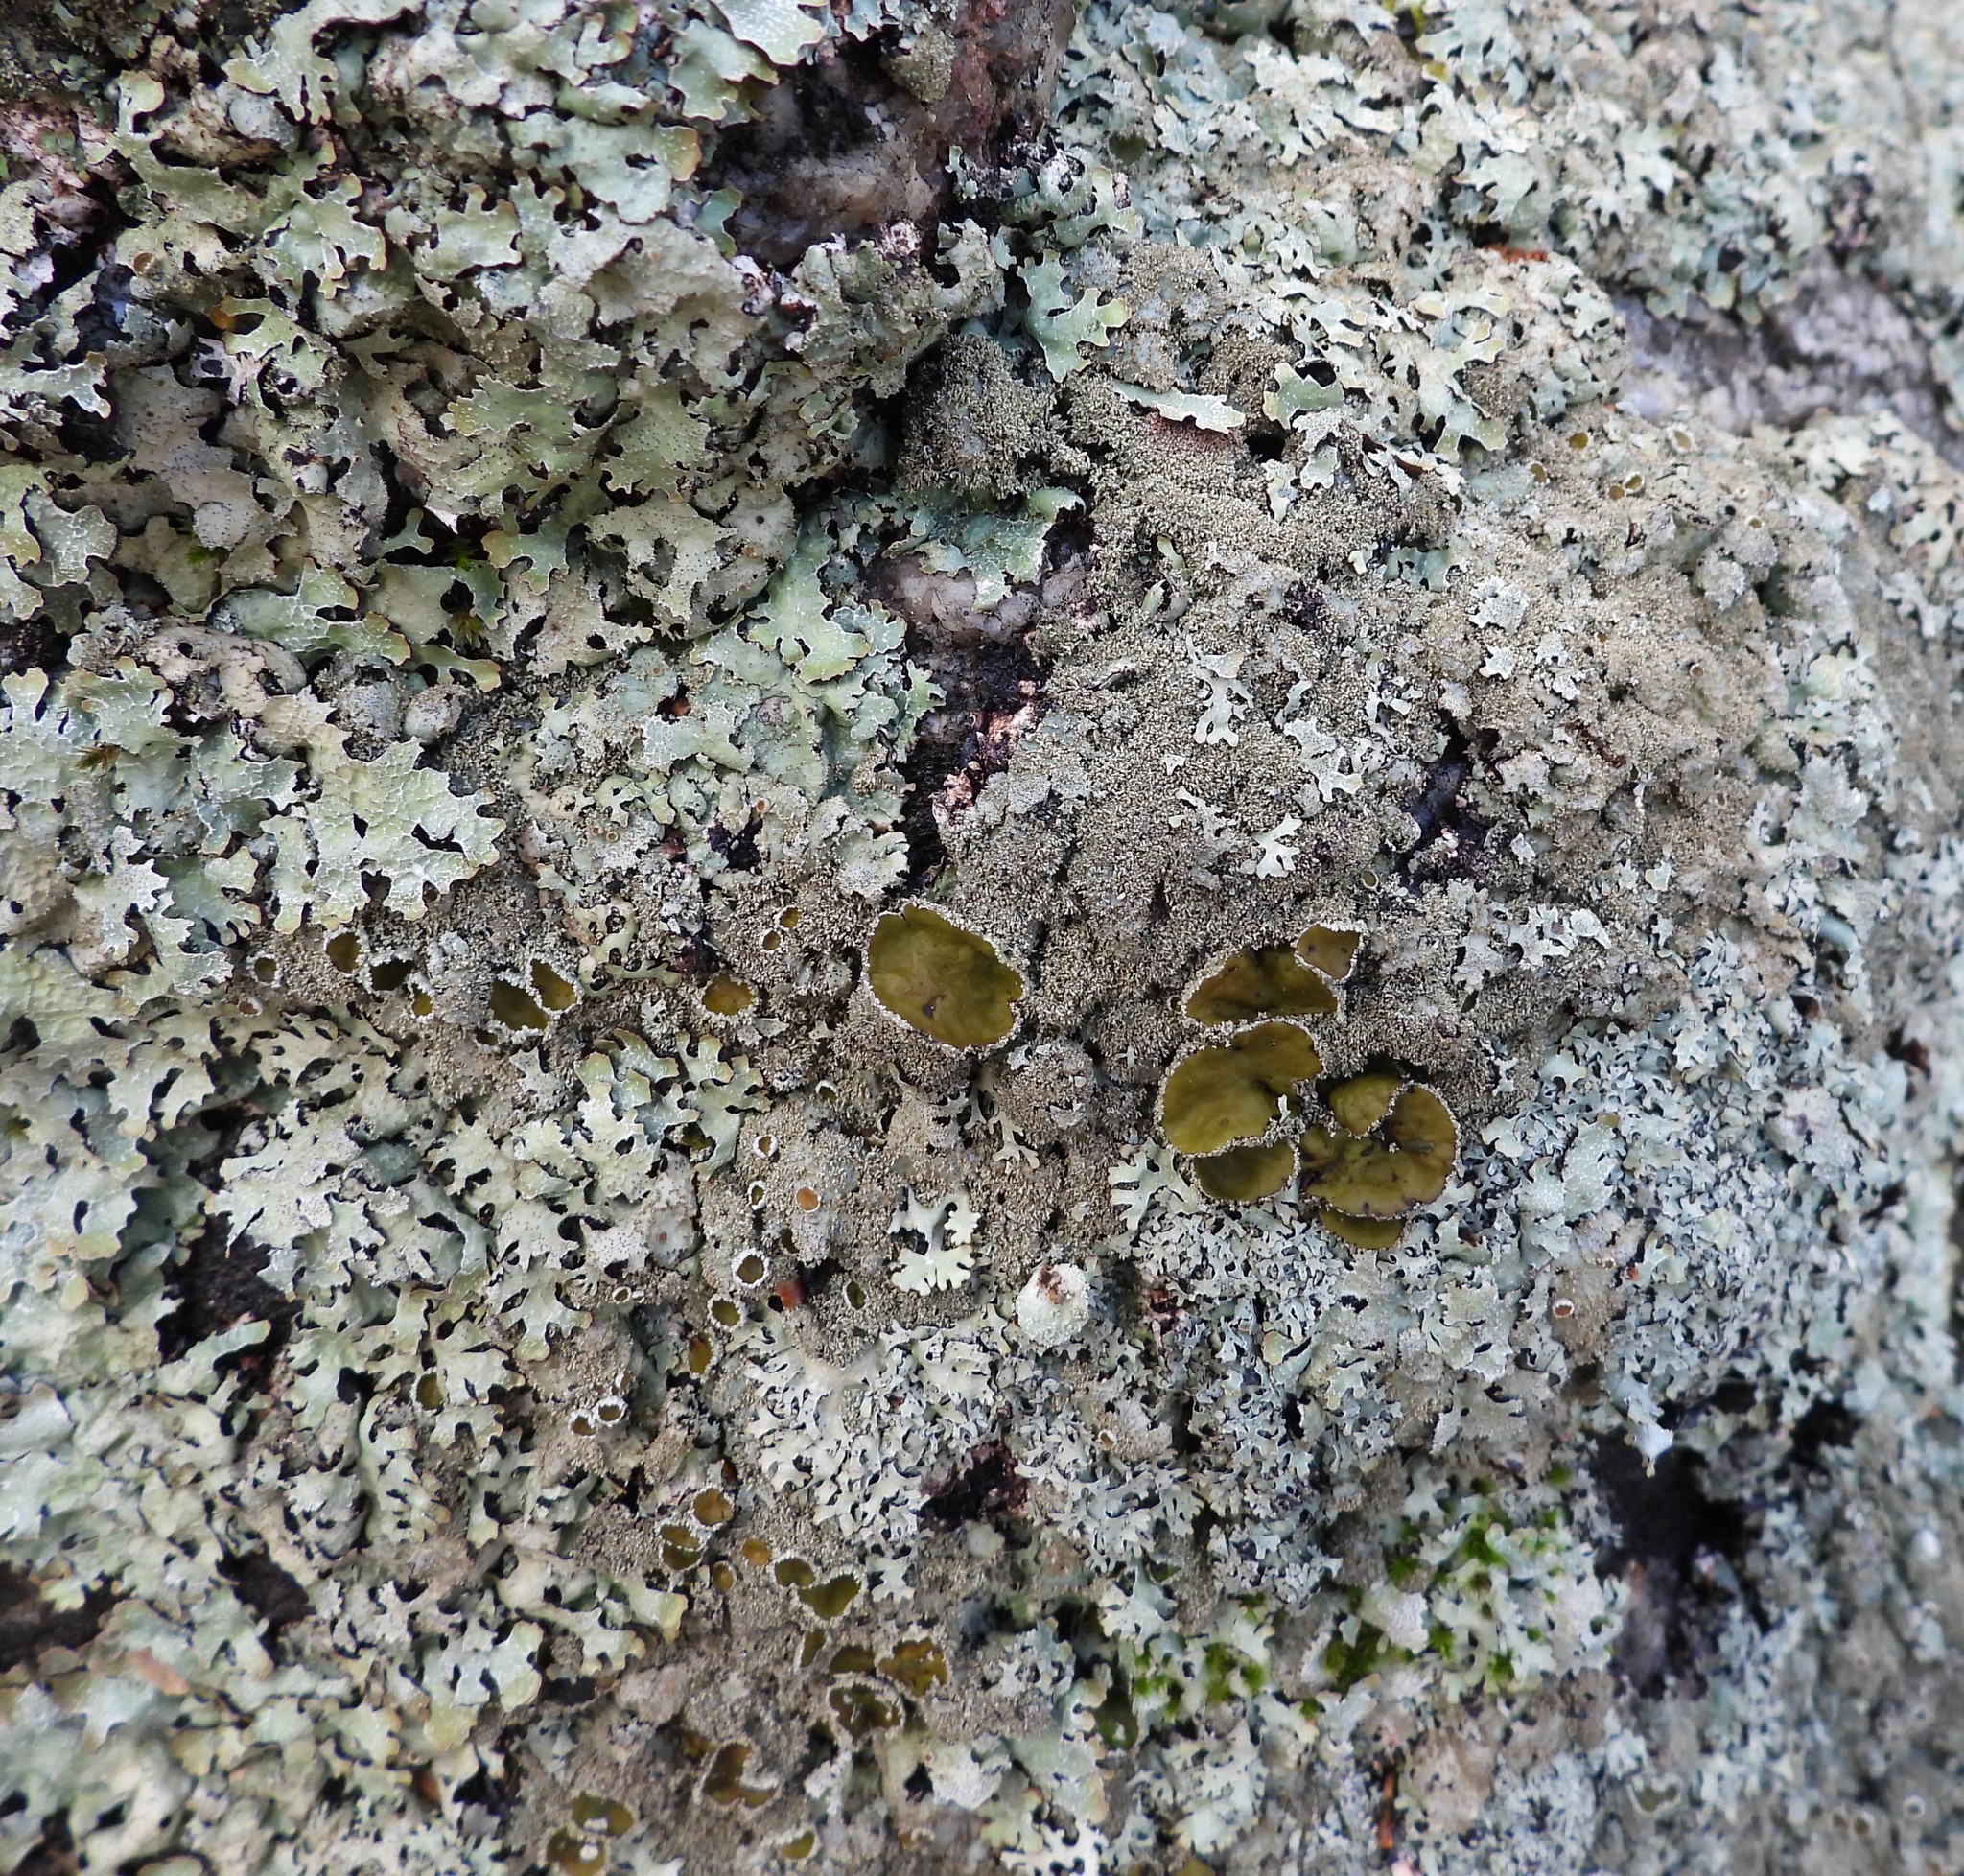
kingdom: Fungi
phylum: Ascomycota
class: Lecanoromycetes
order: Lecanorales
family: Parmeliaceae
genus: Parmelia
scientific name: Parmelia saxatilis
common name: Salted shield lichen
